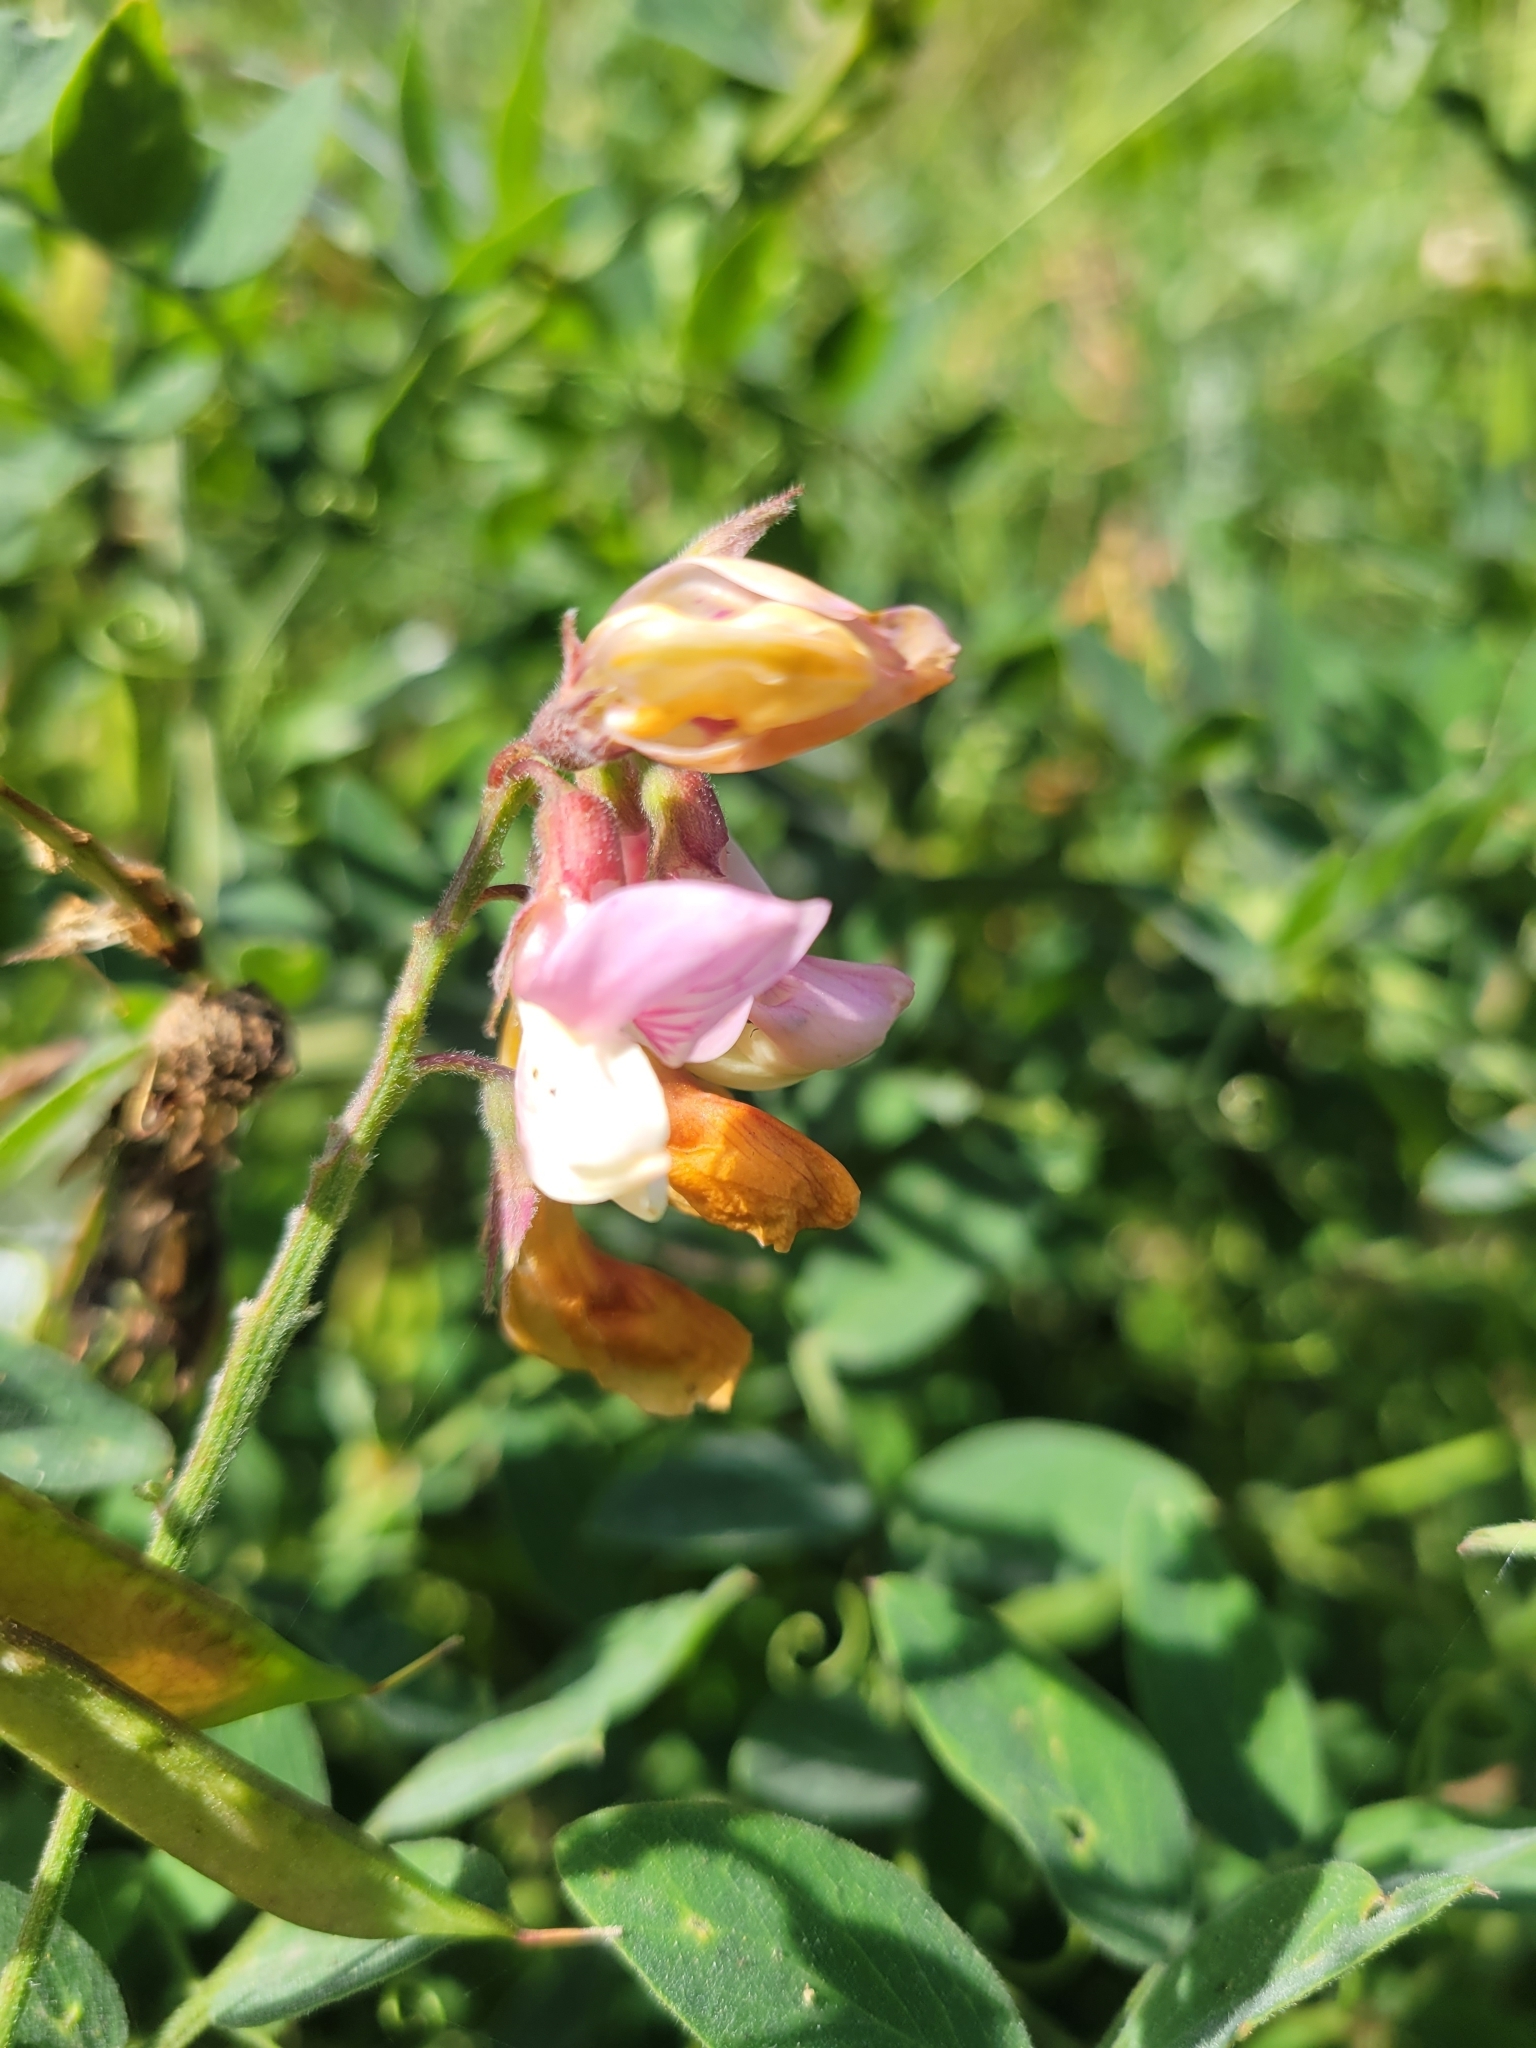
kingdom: Plantae
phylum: Tracheophyta
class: Magnoliopsida
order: Fabales
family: Fabaceae
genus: Lathyrus
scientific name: Lathyrus vestitus
